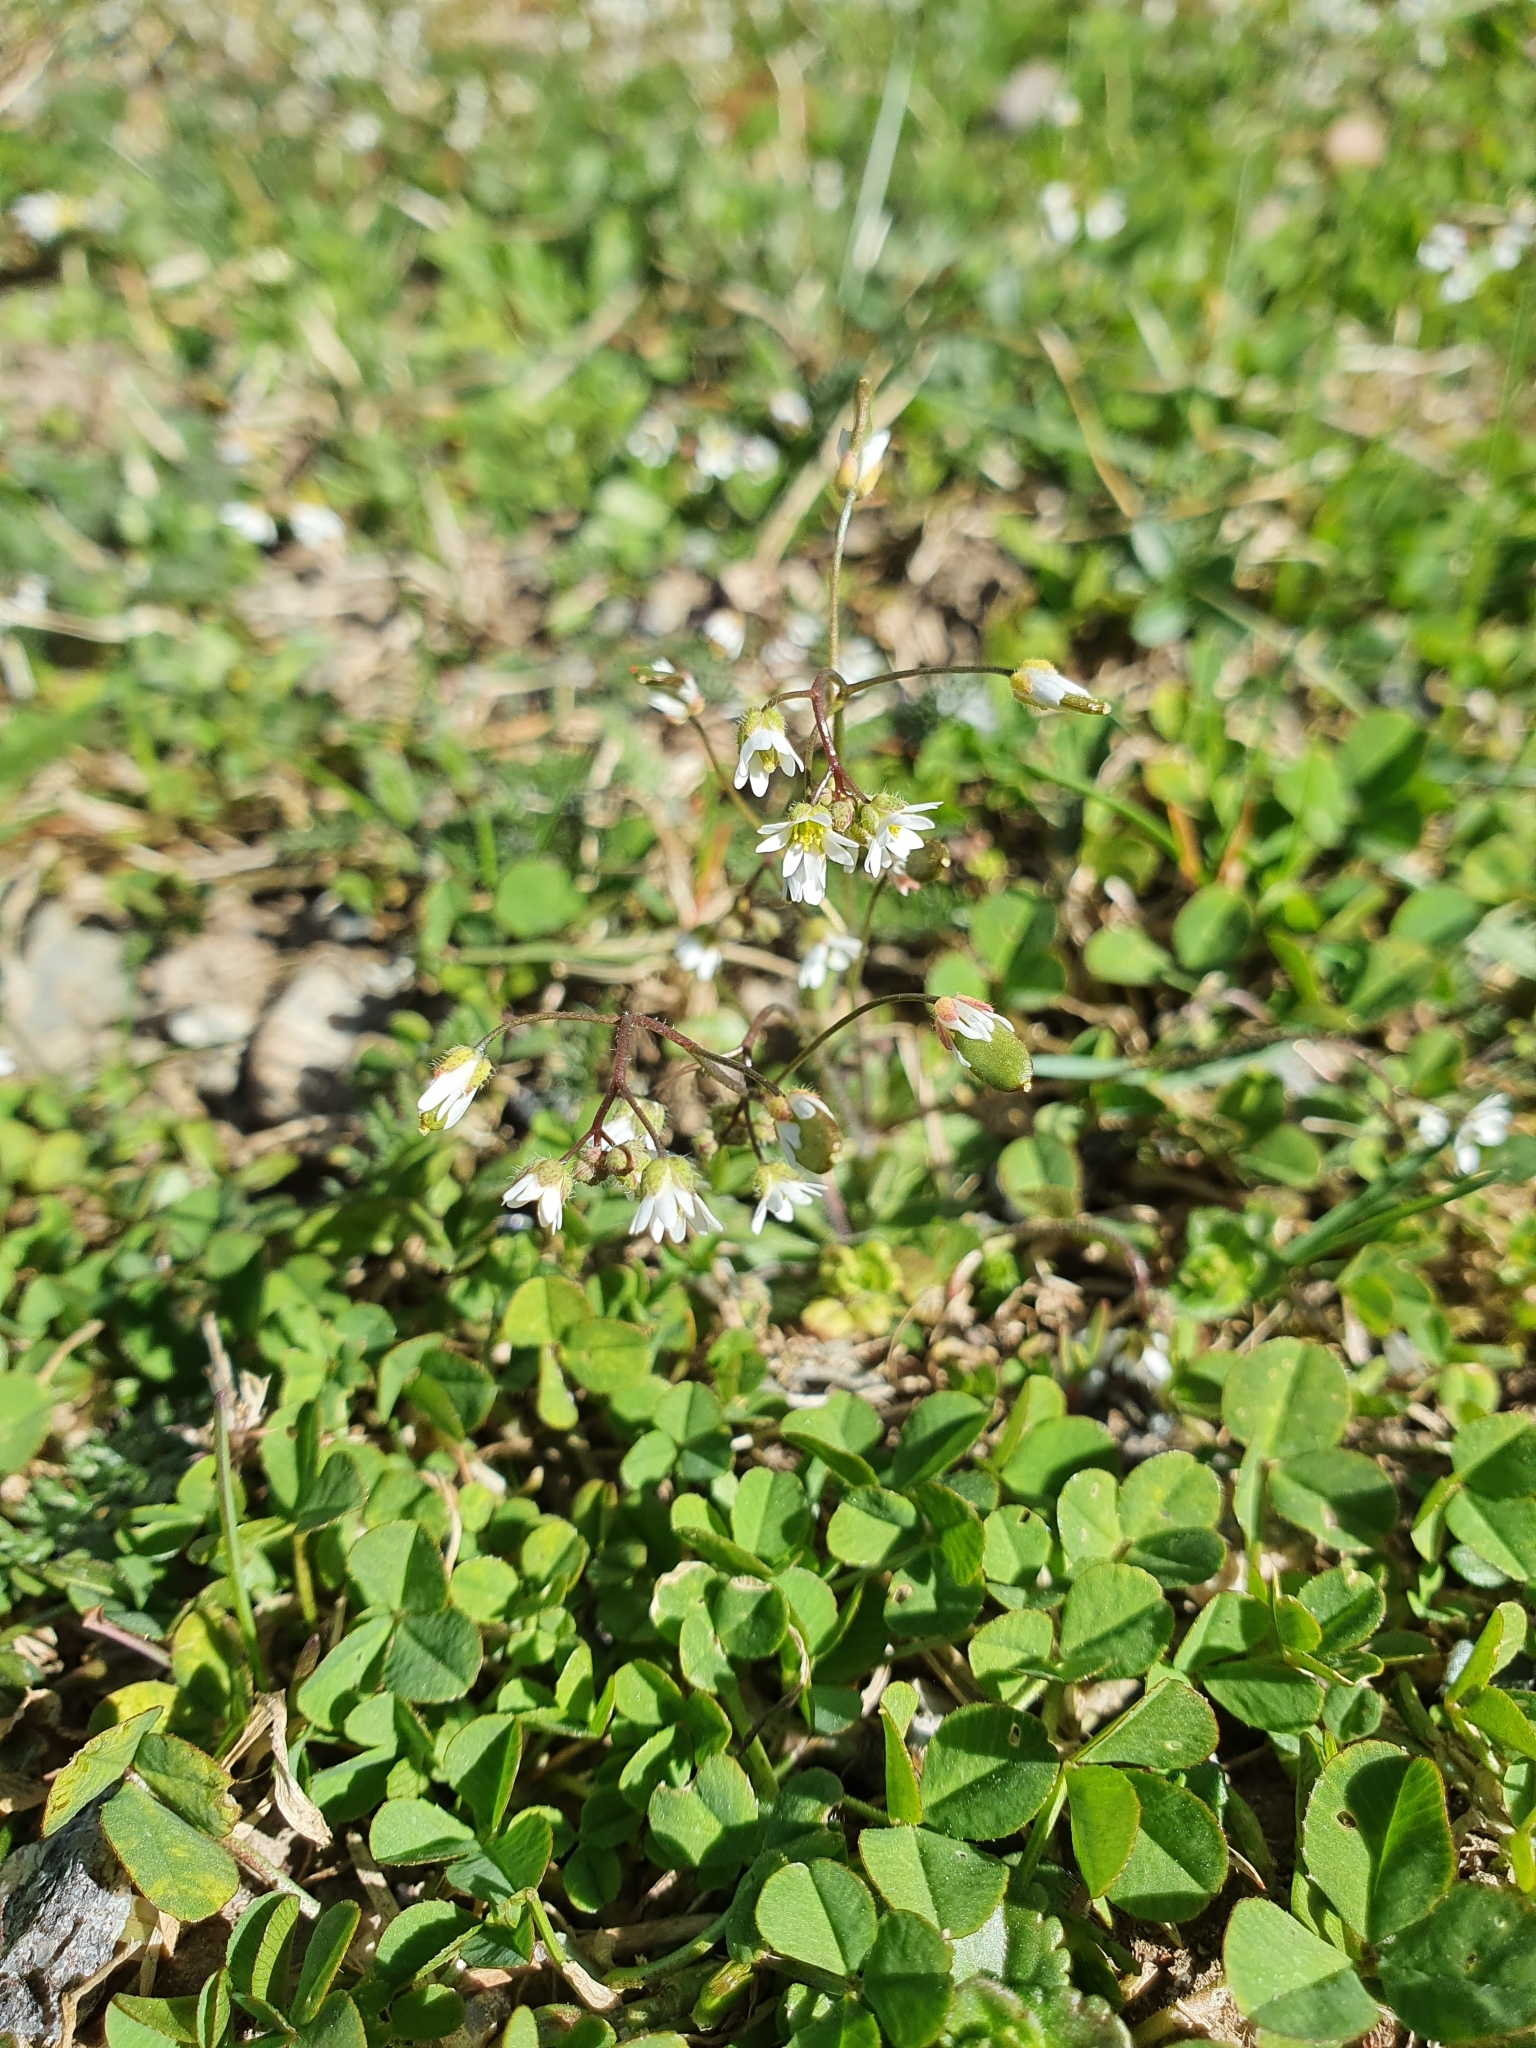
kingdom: Plantae
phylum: Tracheophyta
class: Magnoliopsida
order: Brassicales
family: Brassicaceae
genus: Draba
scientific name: Draba verna
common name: Spring draba
